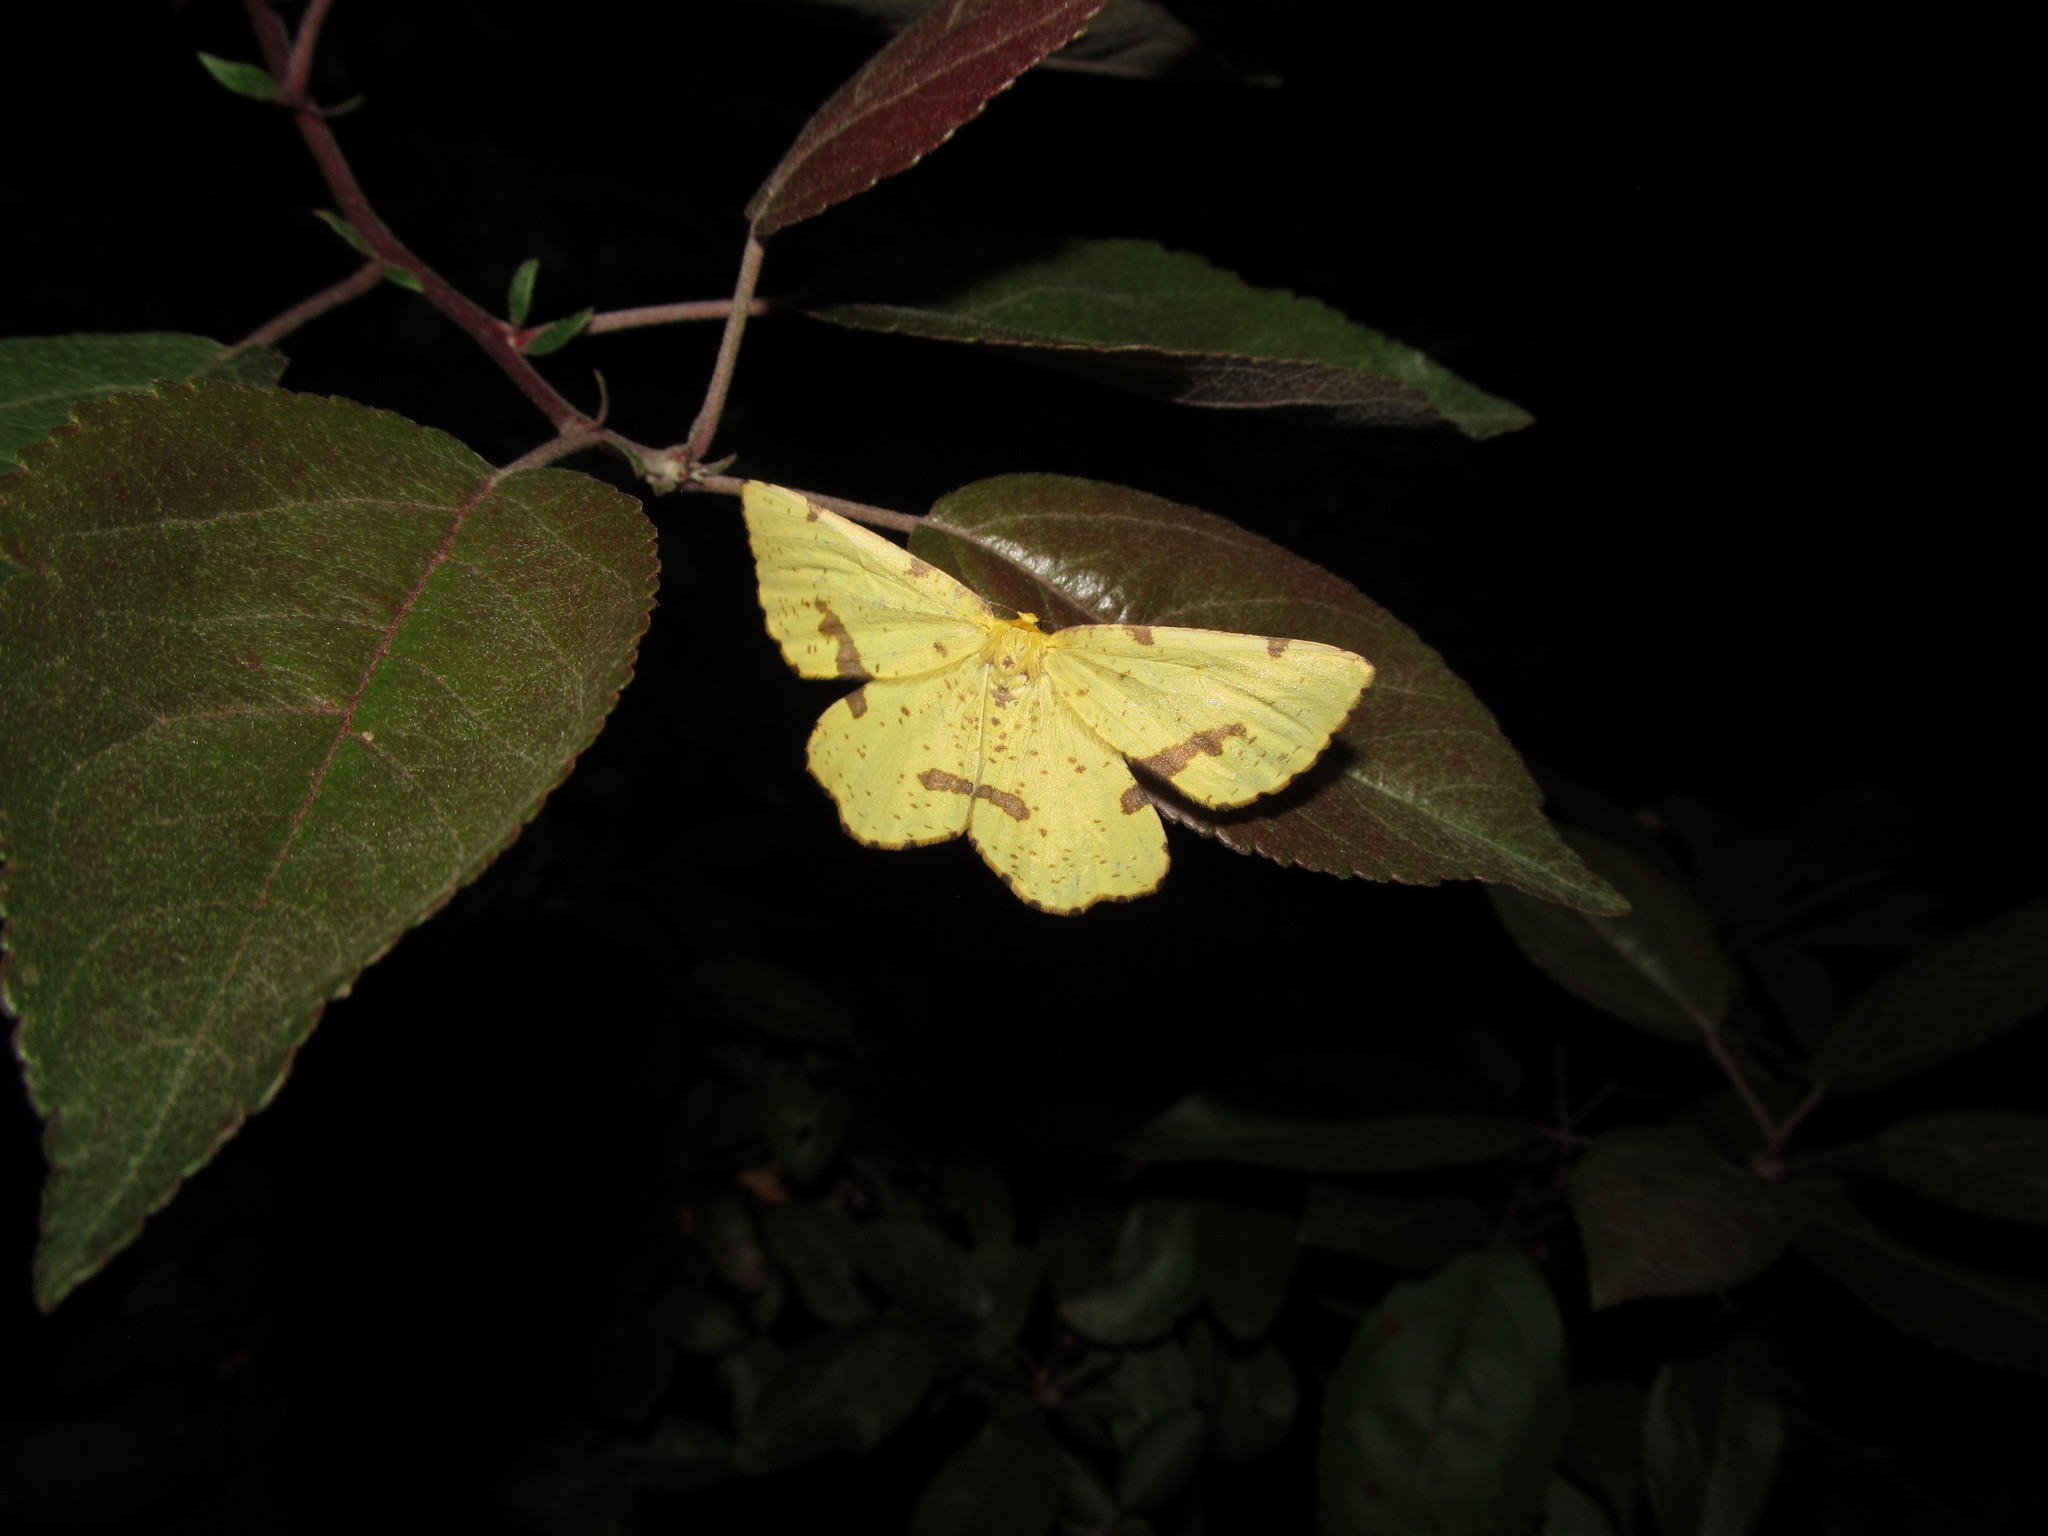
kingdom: Animalia
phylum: Arthropoda
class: Insecta
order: Lepidoptera
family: Geometridae
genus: Xanthotype
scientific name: Xanthotype
